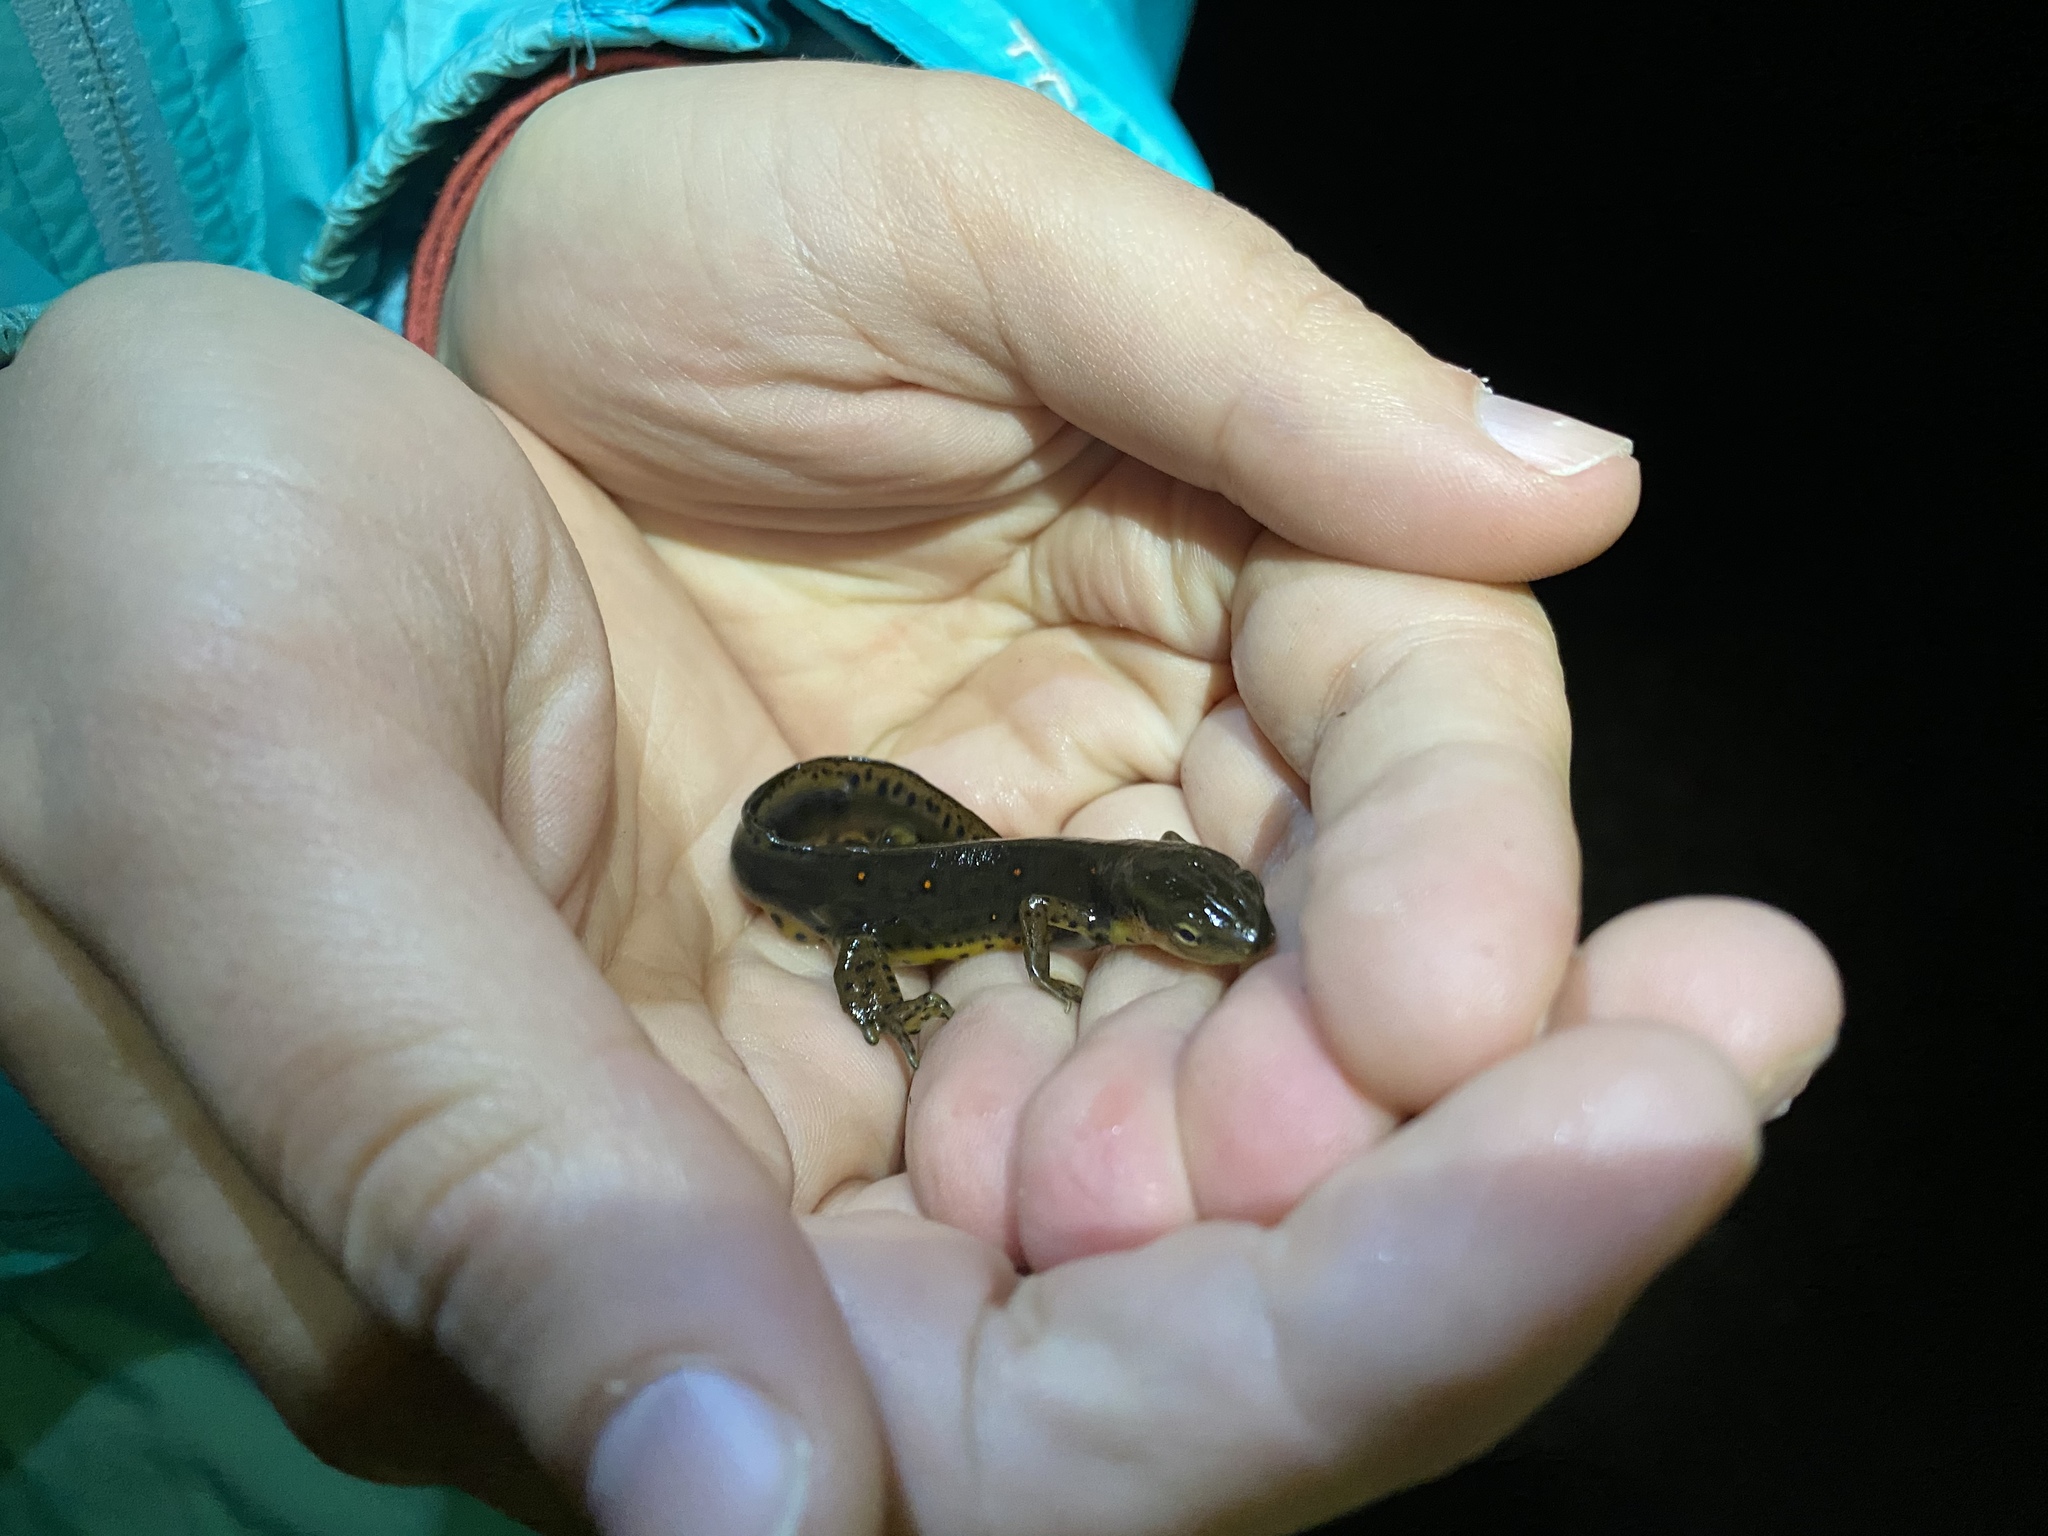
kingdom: Animalia
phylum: Chordata
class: Amphibia
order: Caudata
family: Salamandridae
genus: Notophthalmus
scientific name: Notophthalmus viridescens
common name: Eastern newt
